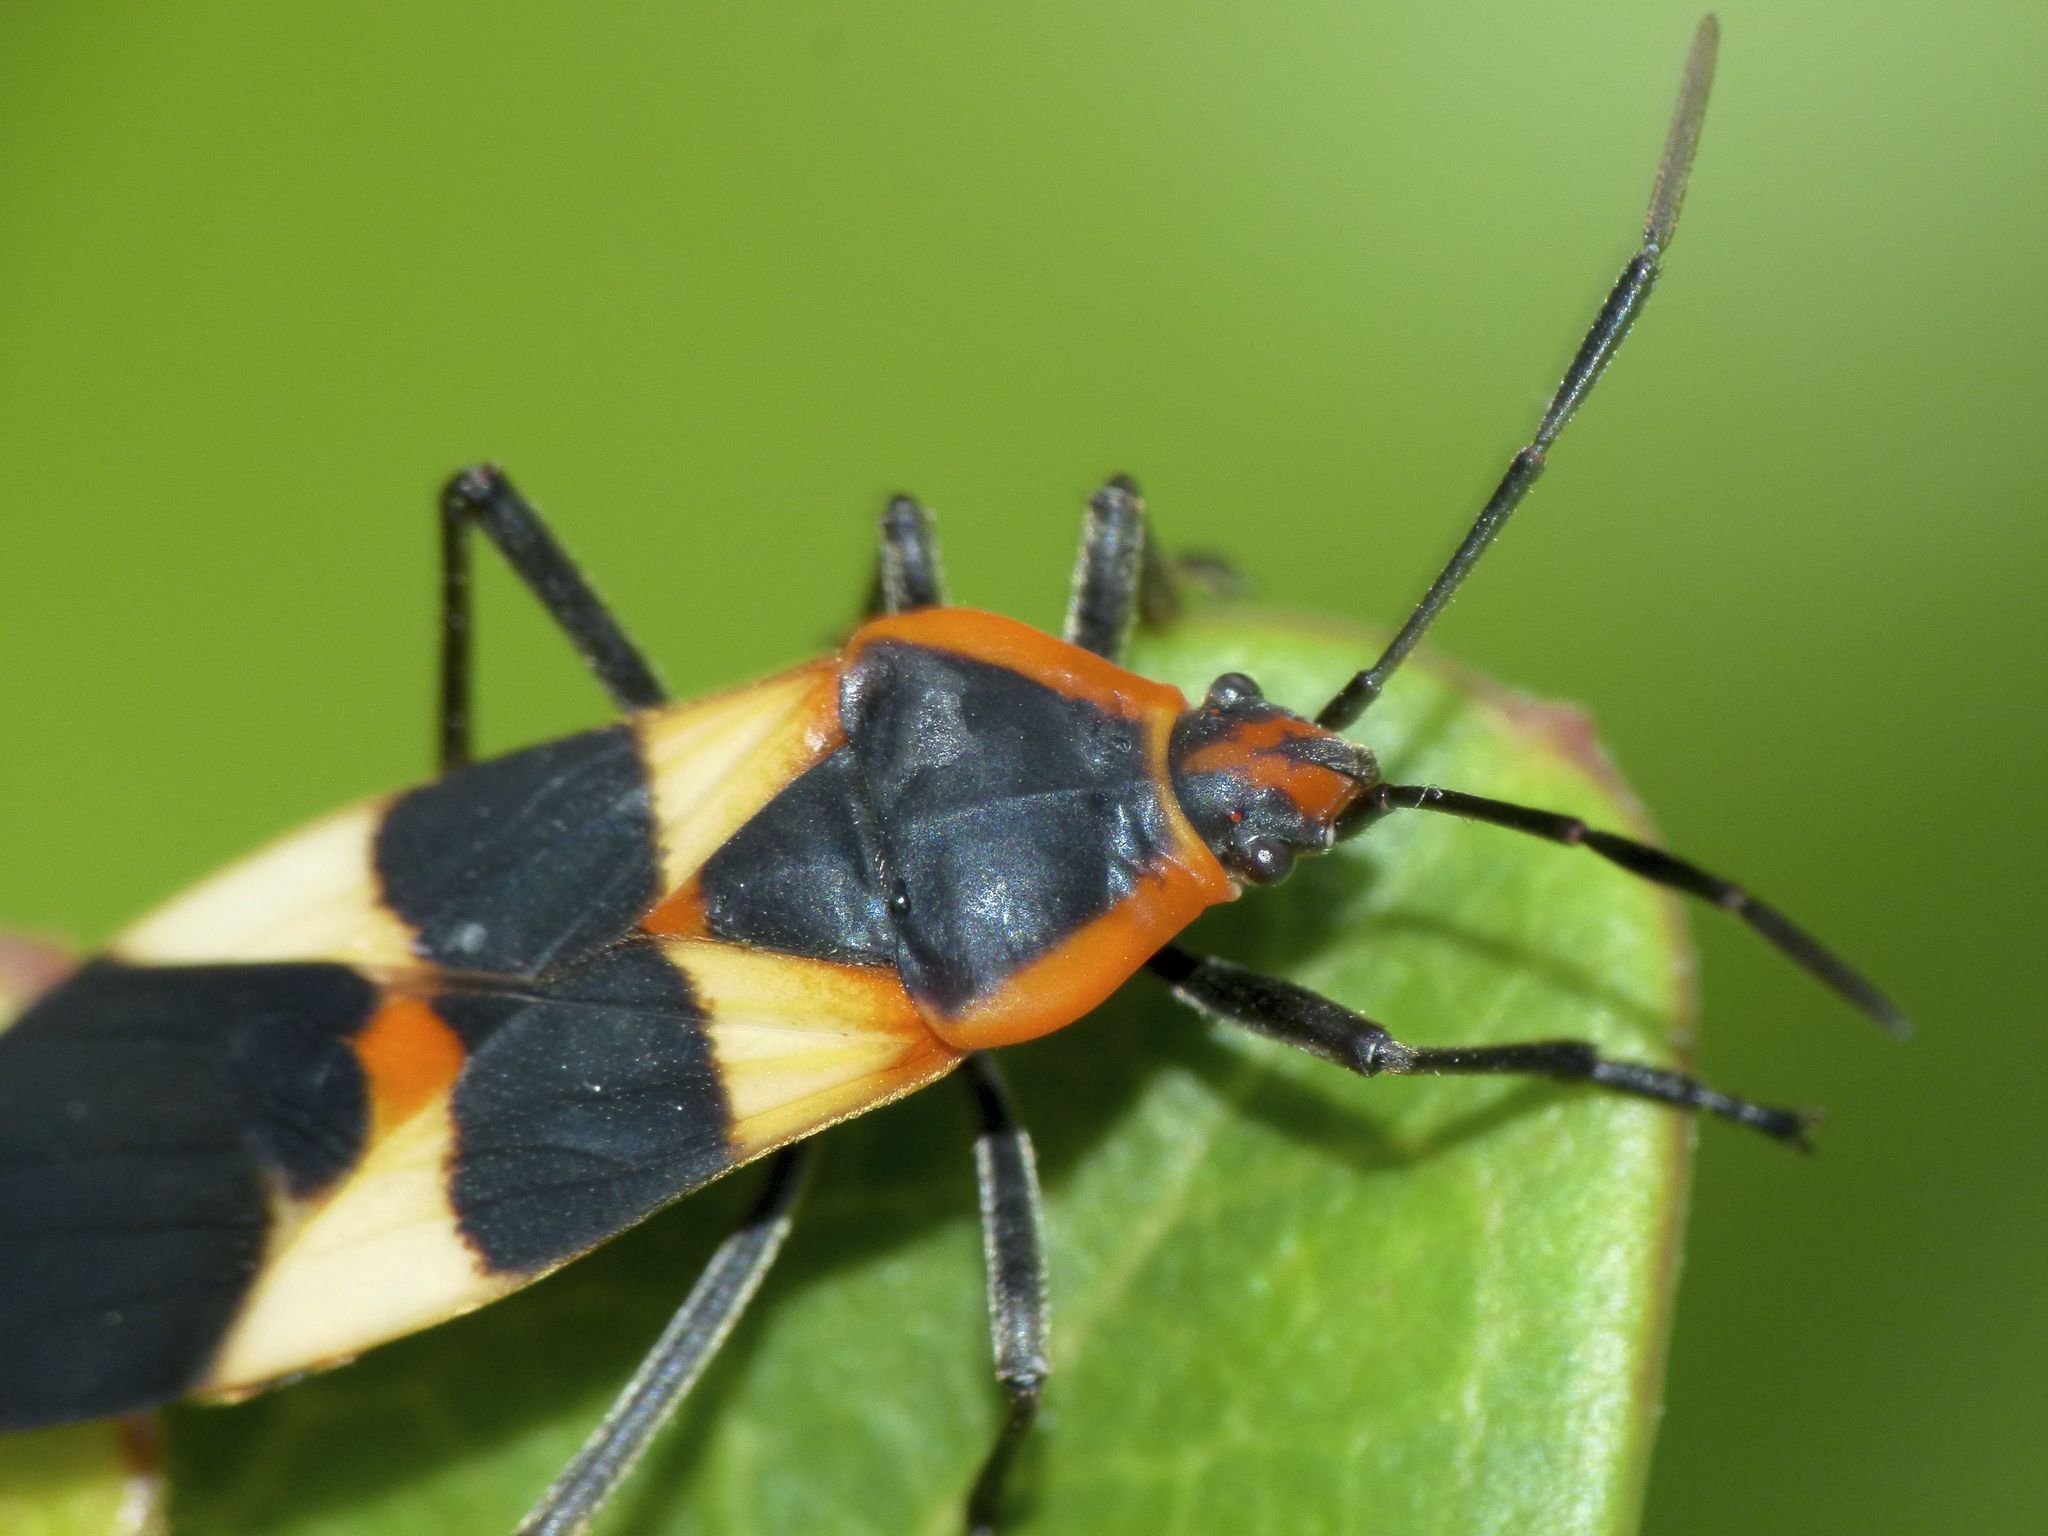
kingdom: Animalia
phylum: Arthropoda
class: Insecta
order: Hemiptera
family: Lygaeidae
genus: Oncopeltus
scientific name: Oncopeltus fasciatus
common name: Large milkweed bug
